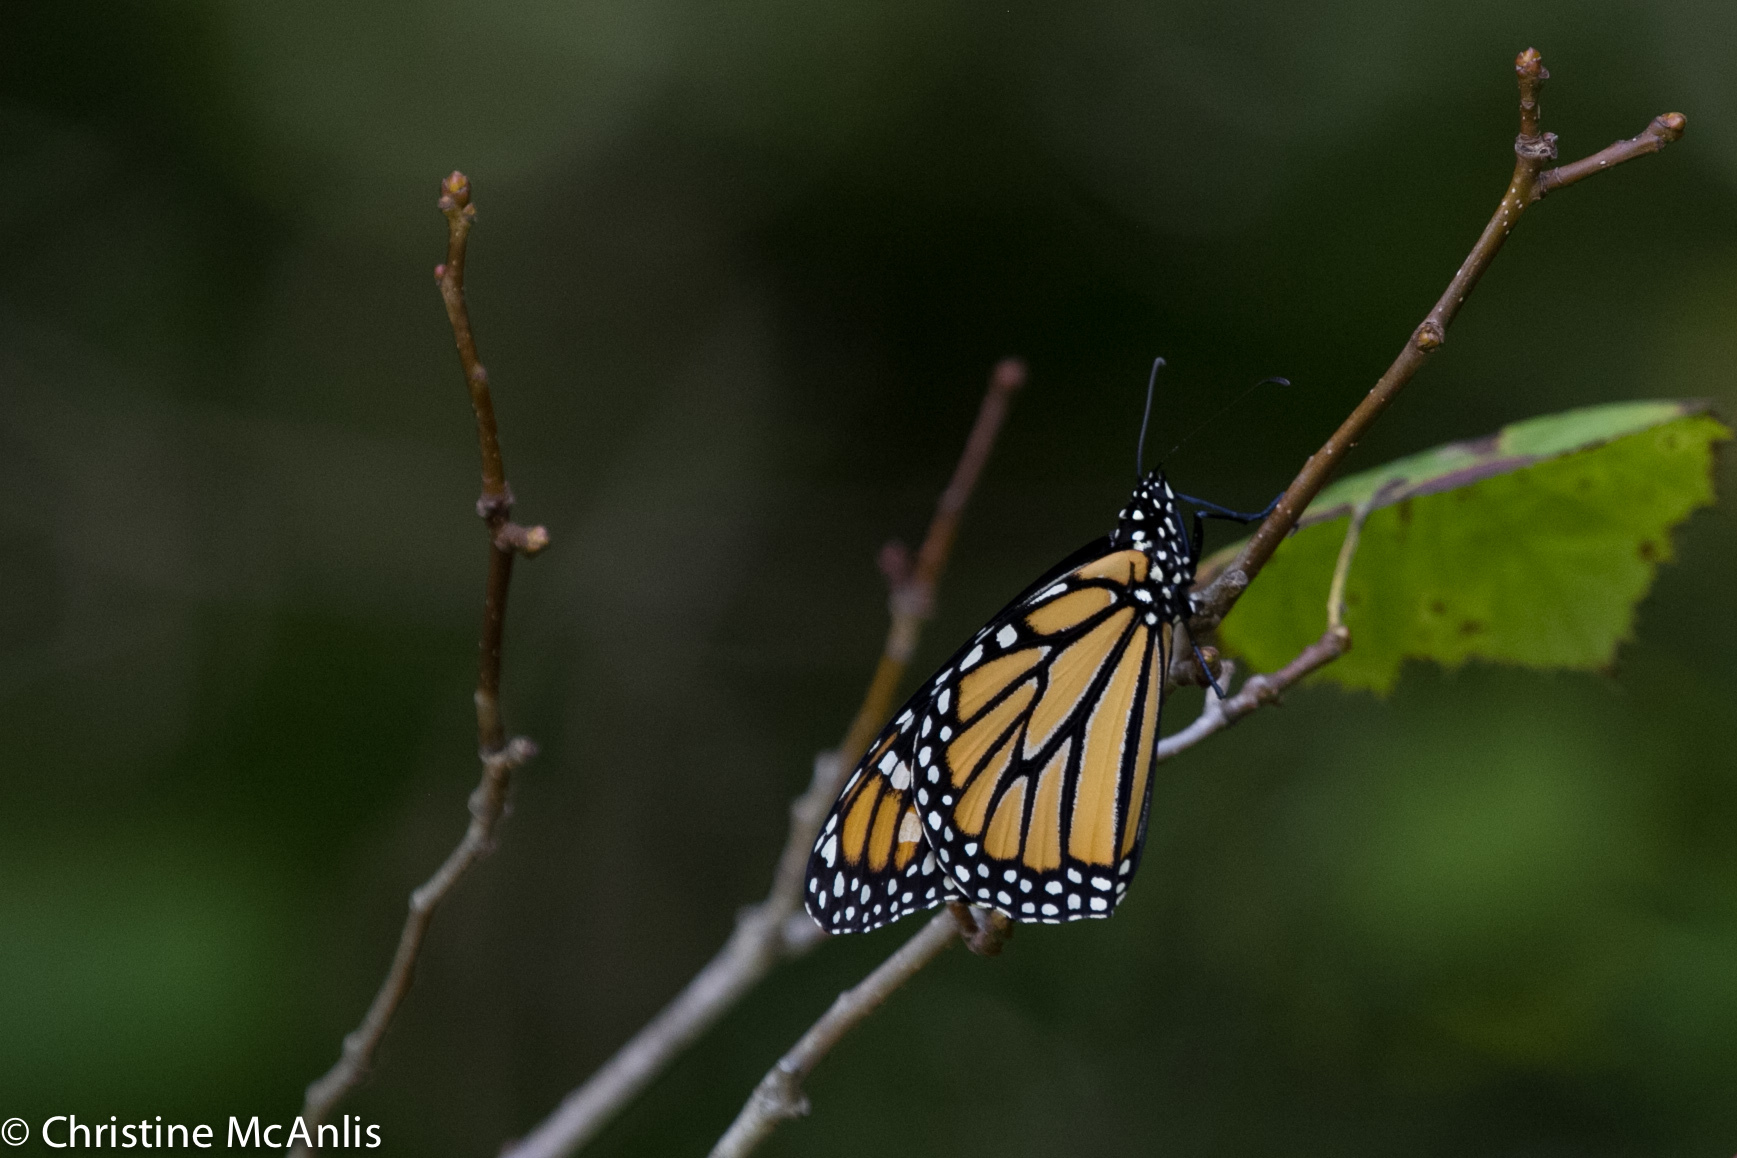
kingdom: Animalia
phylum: Arthropoda
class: Insecta
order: Lepidoptera
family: Nymphalidae
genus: Danaus
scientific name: Danaus plexippus
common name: Monarch
